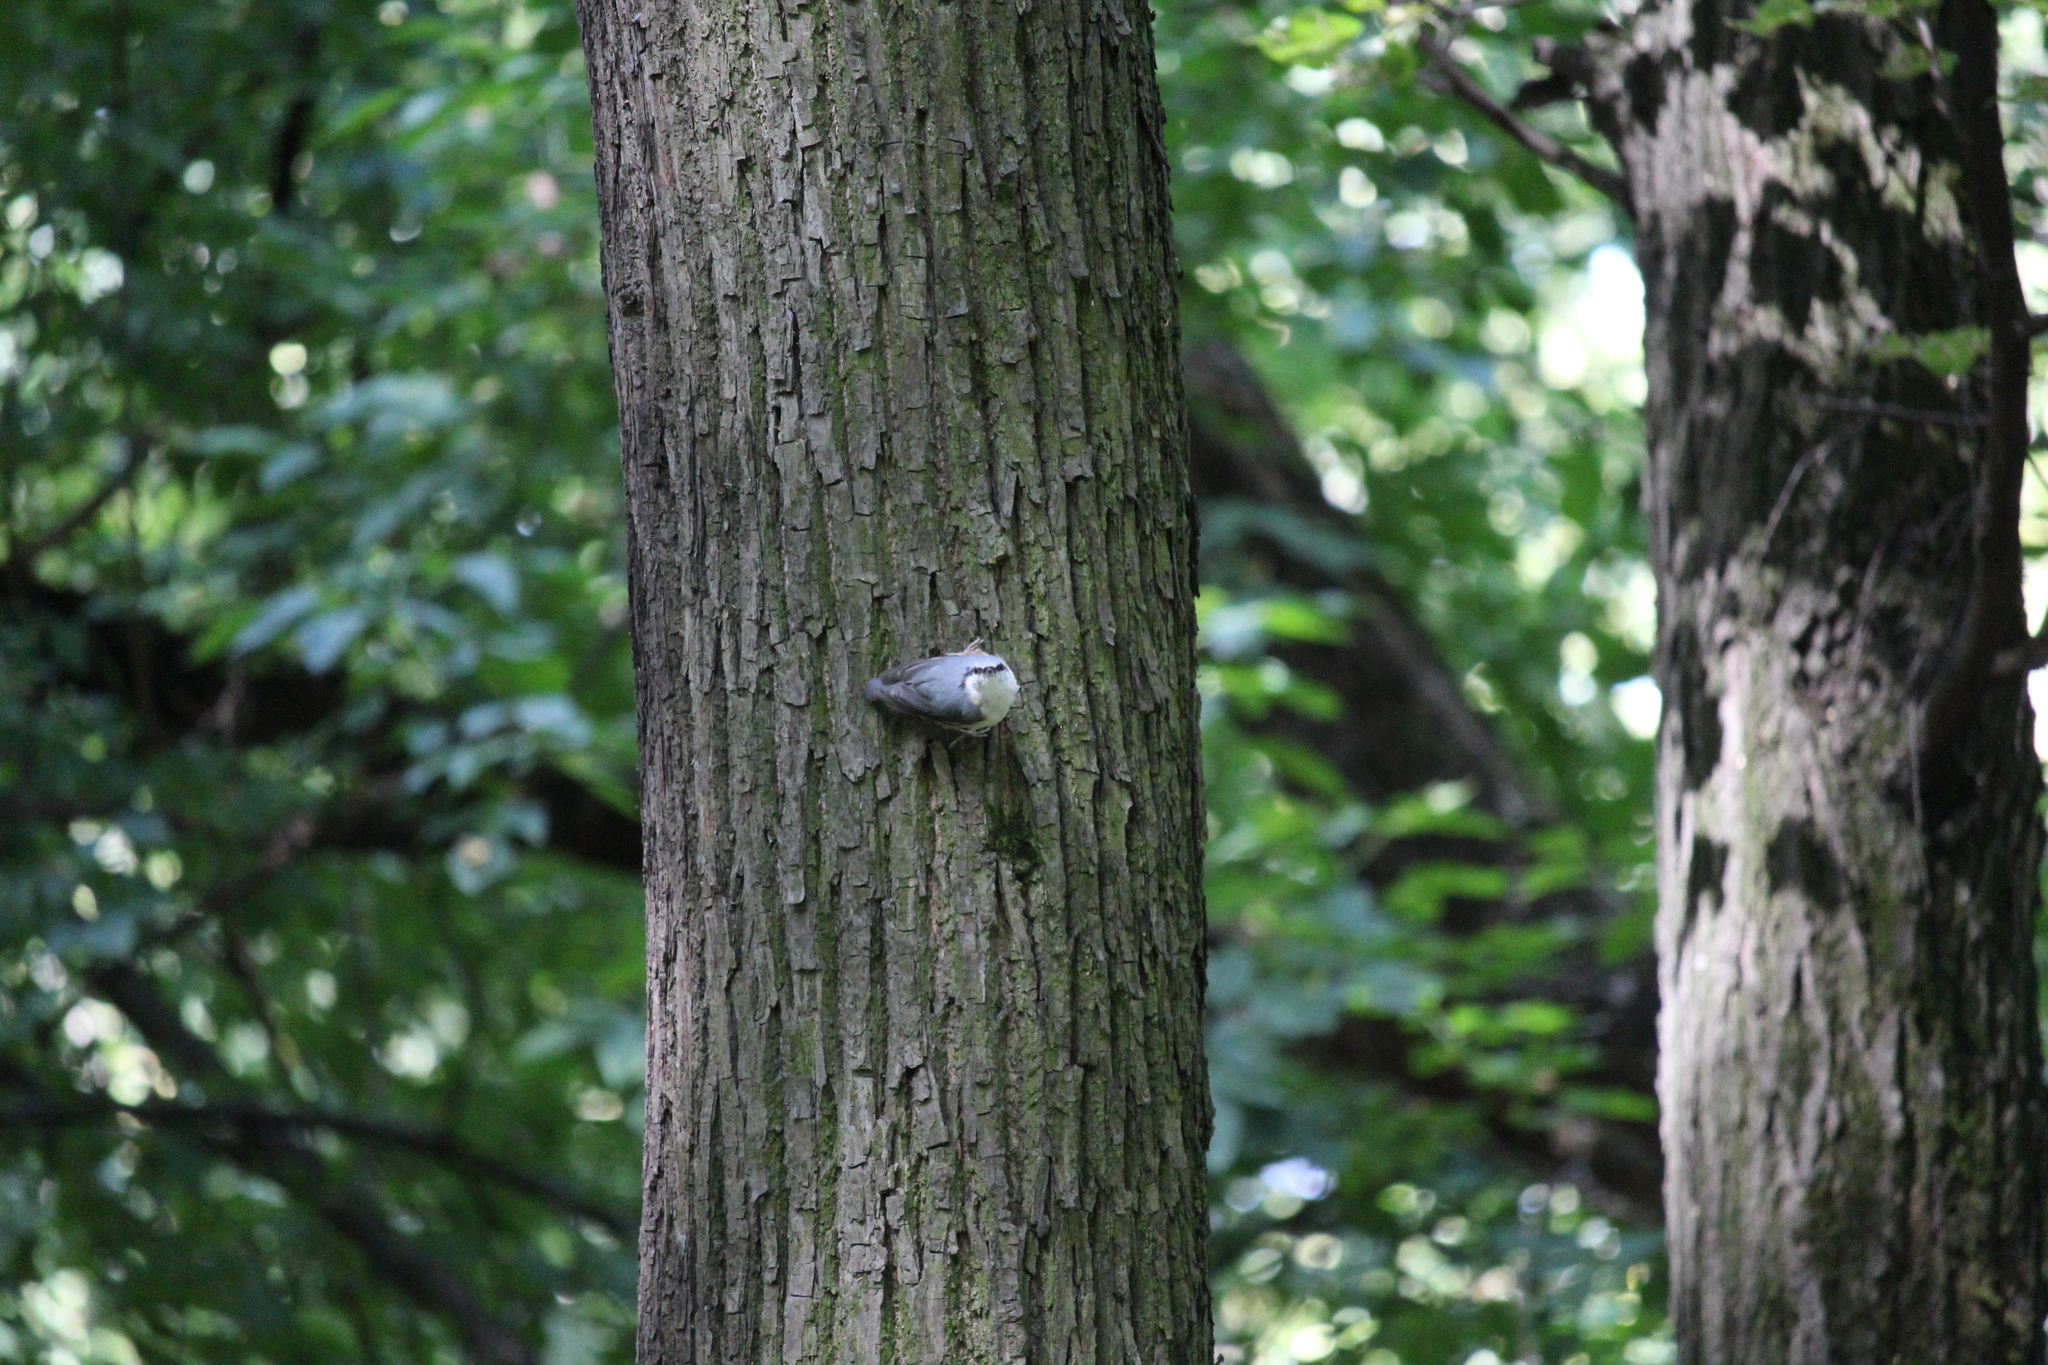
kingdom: Animalia
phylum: Chordata
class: Aves
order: Passeriformes
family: Sittidae
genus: Sitta
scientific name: Sitta europaea
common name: Eurasian nuthatch
